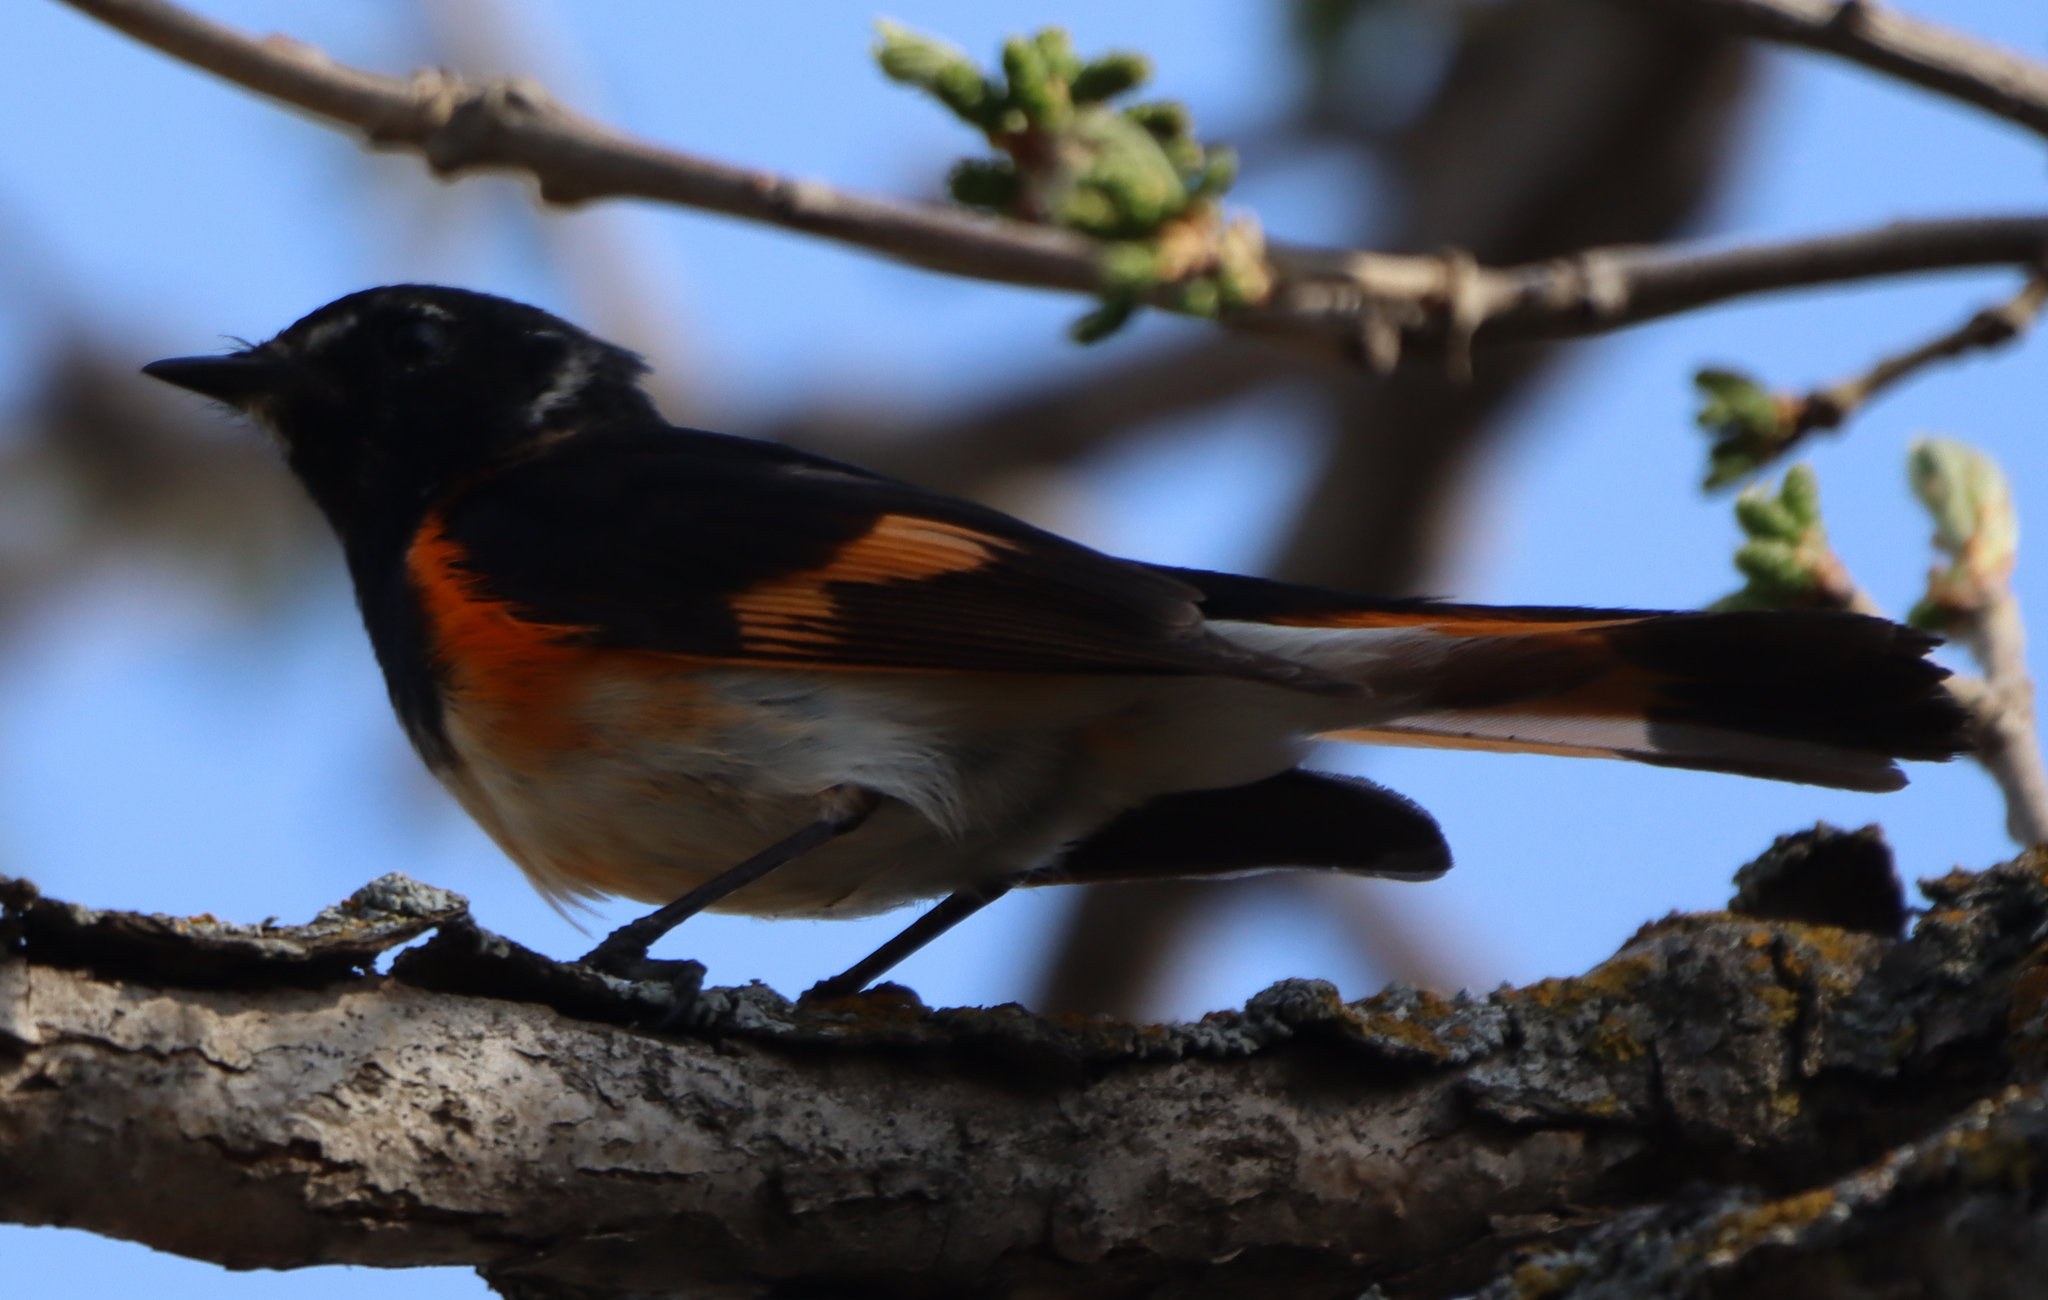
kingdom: Animalia
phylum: Chordata
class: Aves
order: Passeriformes
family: Parulidae
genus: Setophaga
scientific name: Setophaga ruticilla
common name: American redstart
